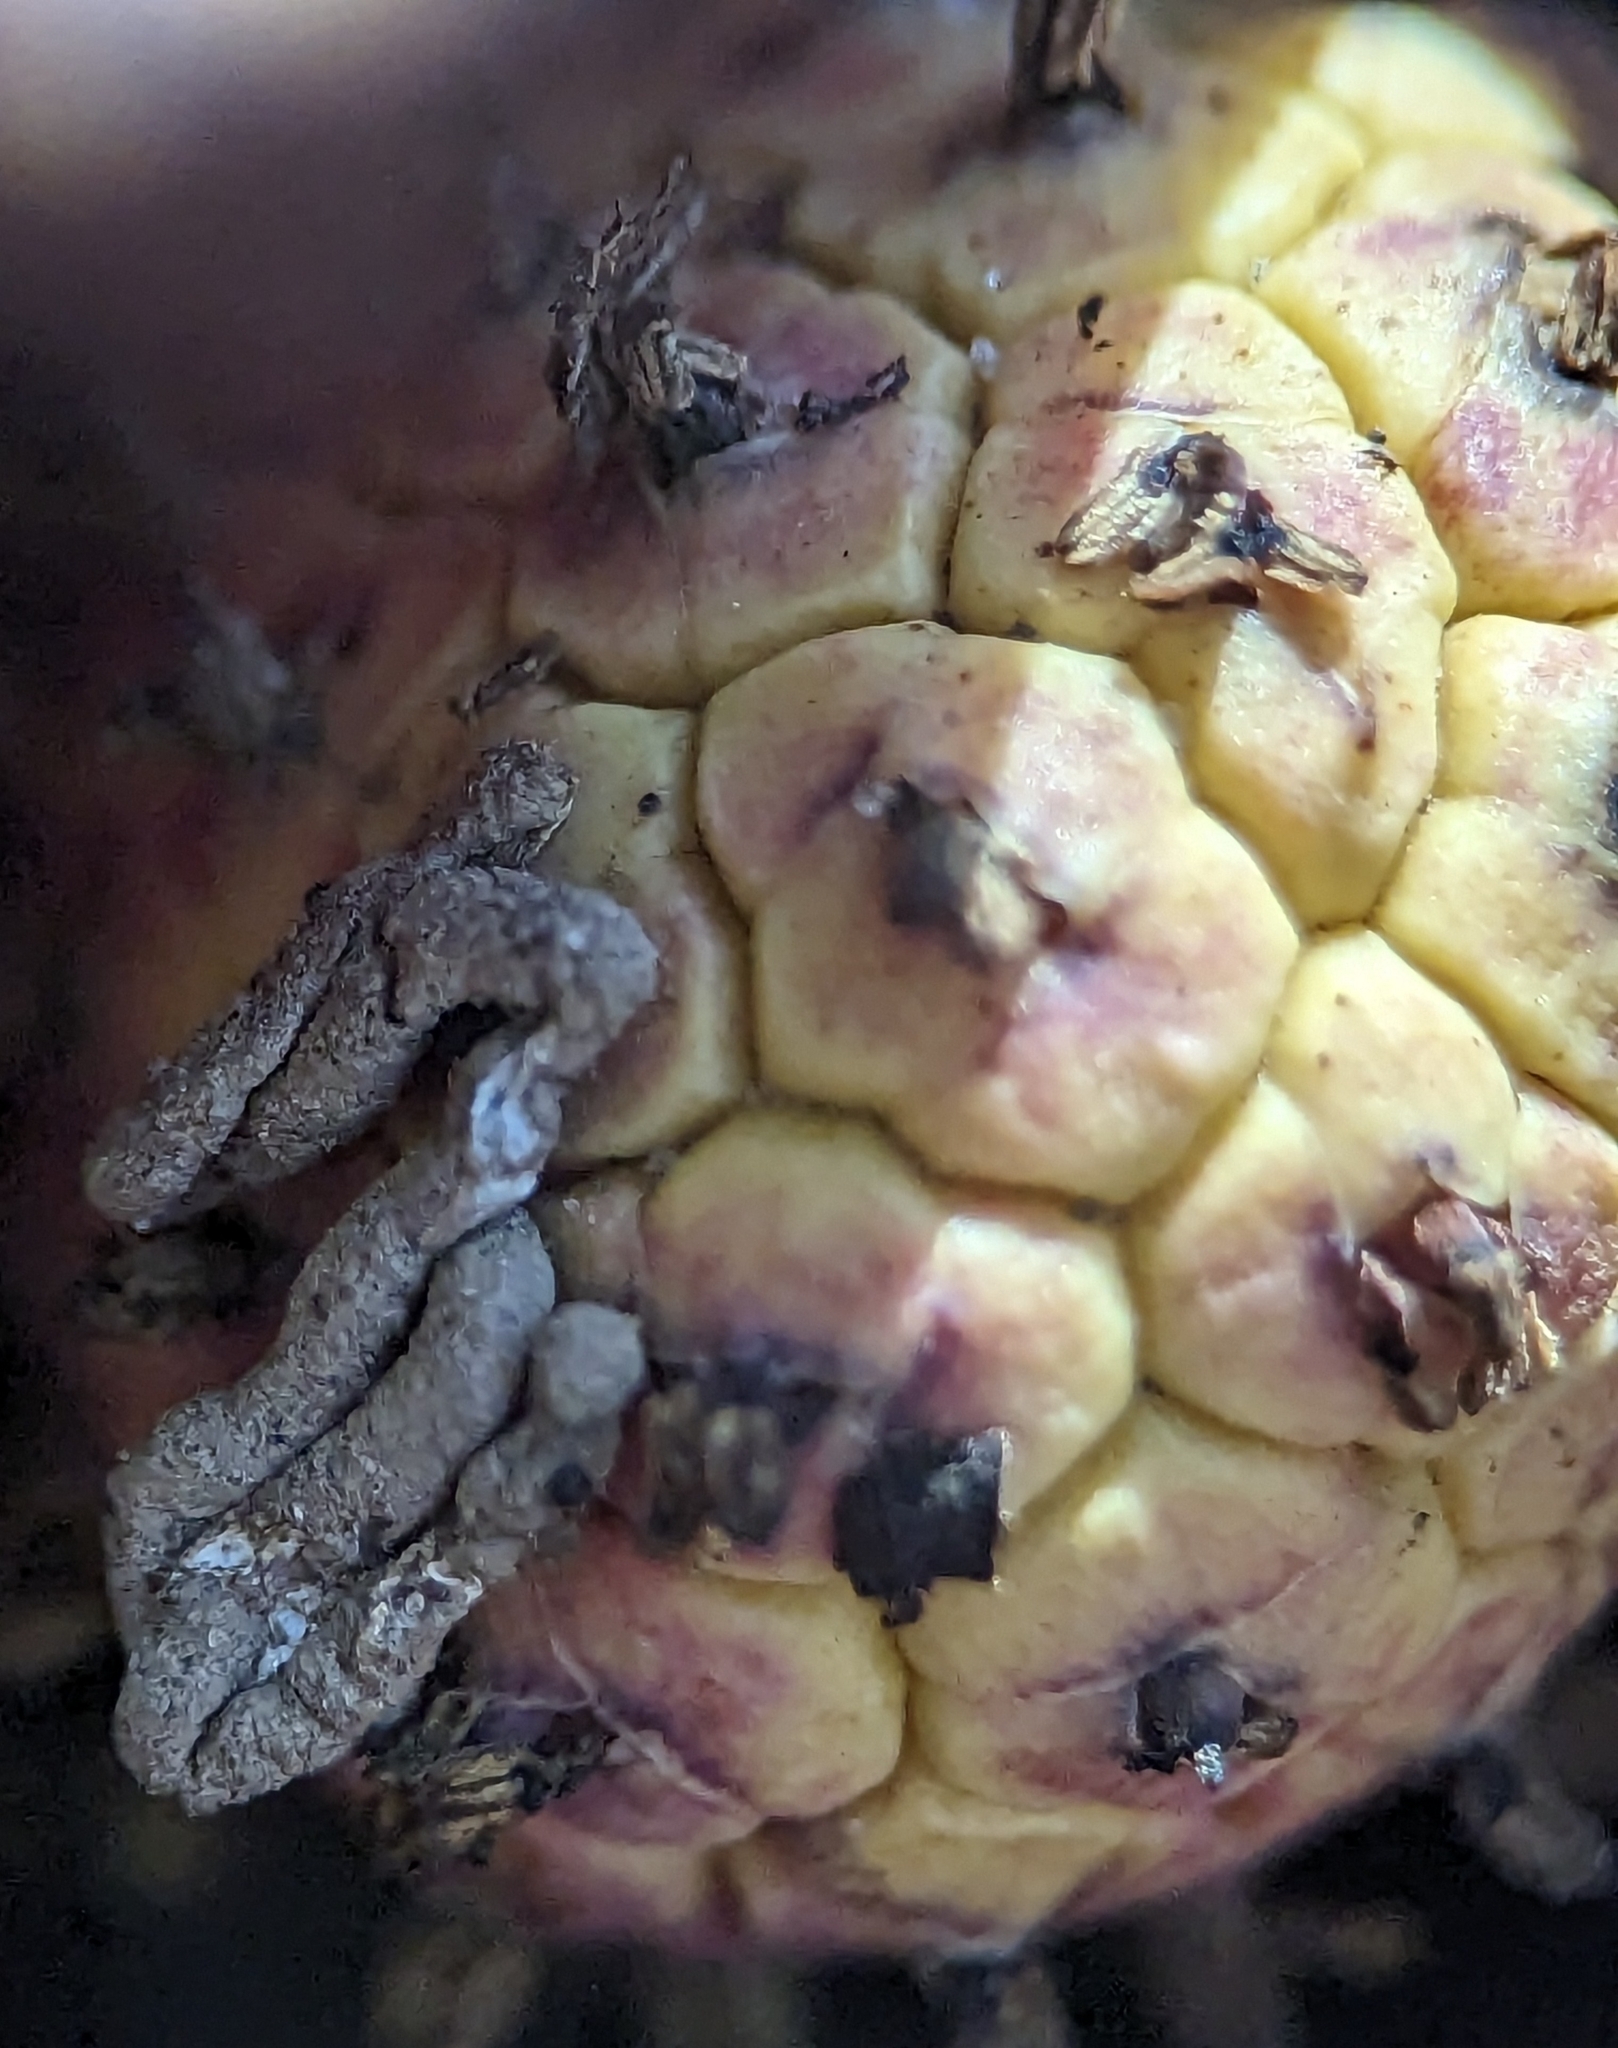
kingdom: Plantae
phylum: Tracheophyta
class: Liliopsida
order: Alismatales
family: Araceae
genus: Symplocarpus
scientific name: Symplocarpus foetidus
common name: Eastern skunk cabbage
